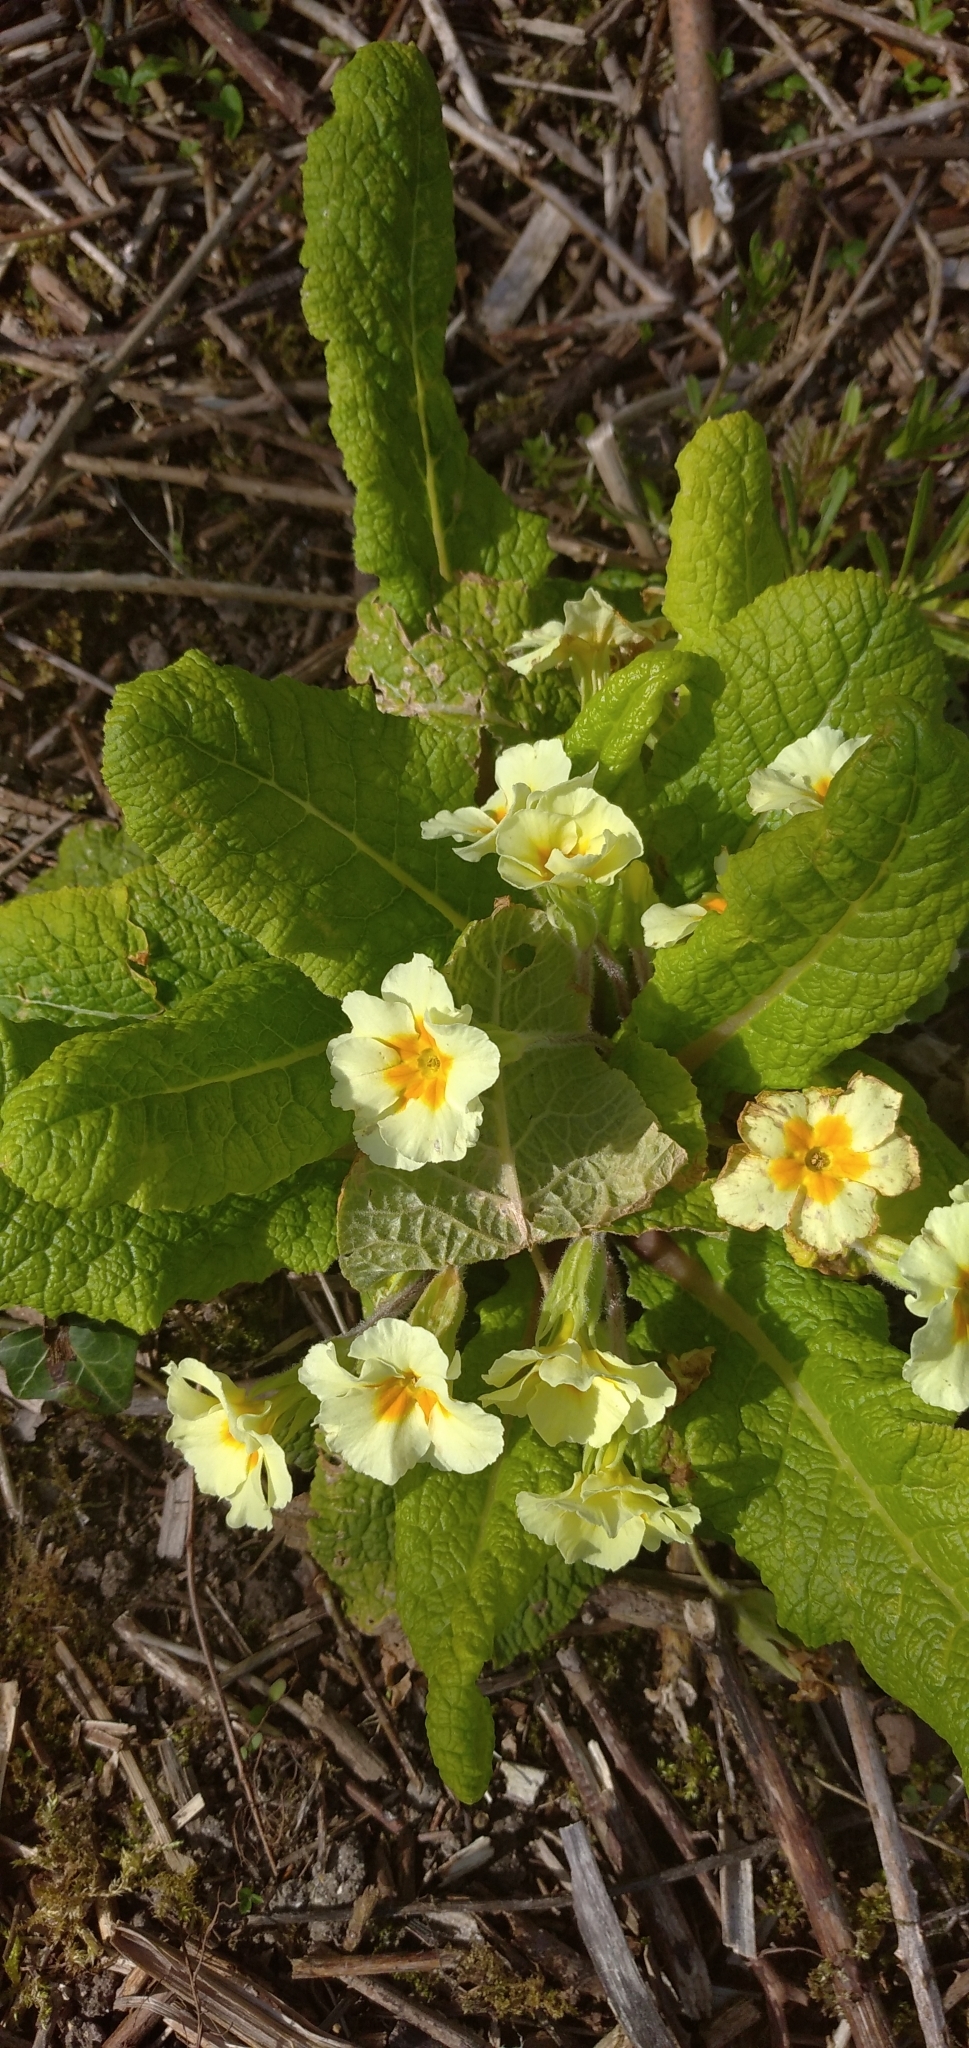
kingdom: Plantae
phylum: Tracheophyta
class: Magnoliopsida
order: Ericales
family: Primulaceae
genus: Primula
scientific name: Primula vulgaris
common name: Primrose
